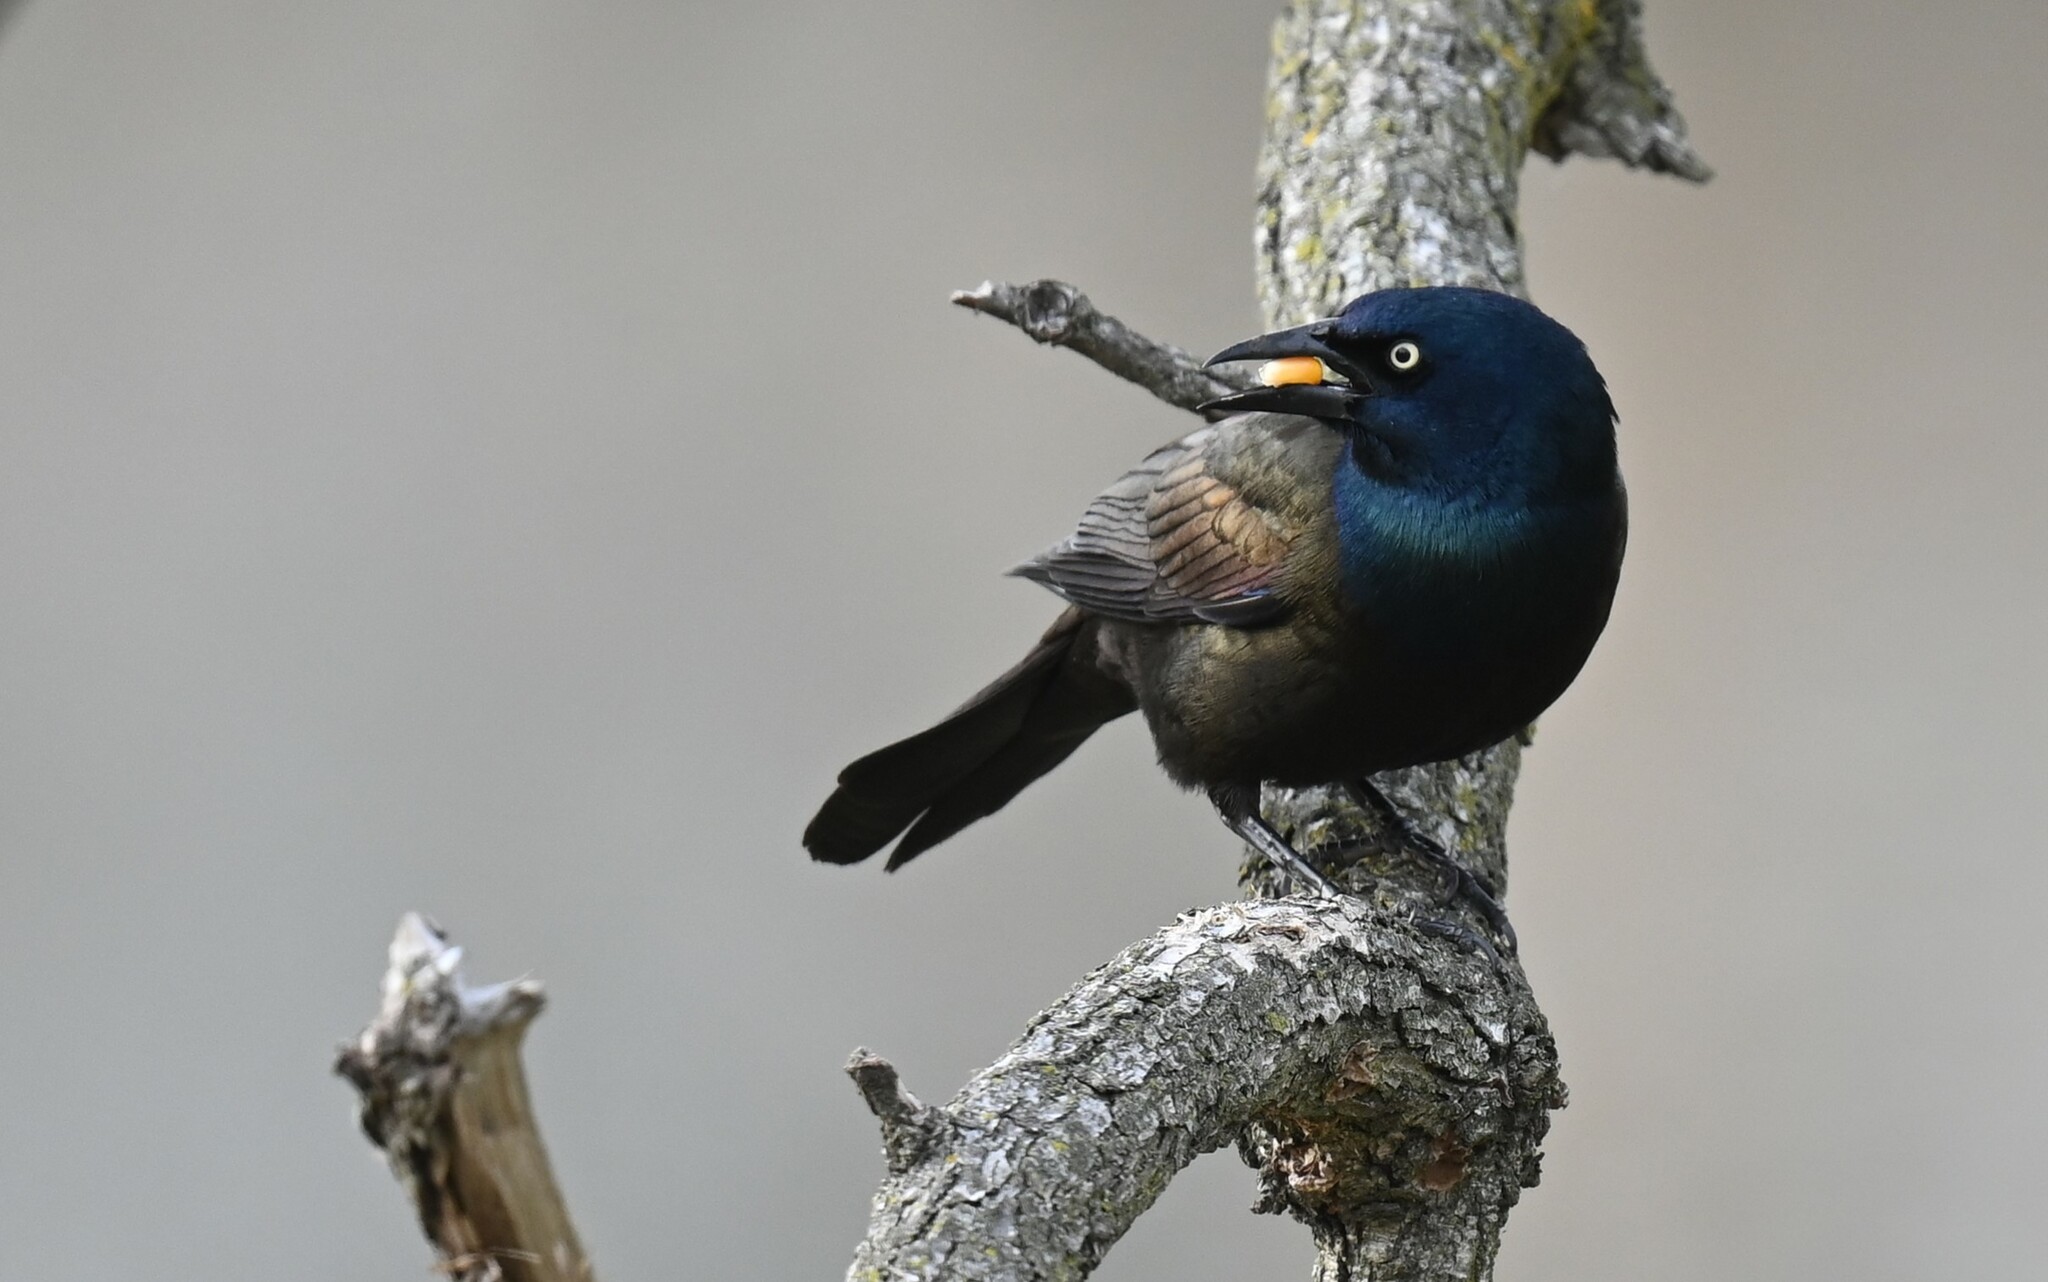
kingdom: Animalia
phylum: Chordata
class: Aves
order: Passeriformes
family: Icteridae
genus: Quiscalus
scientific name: Quiscalus quiscula
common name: Common grackle
